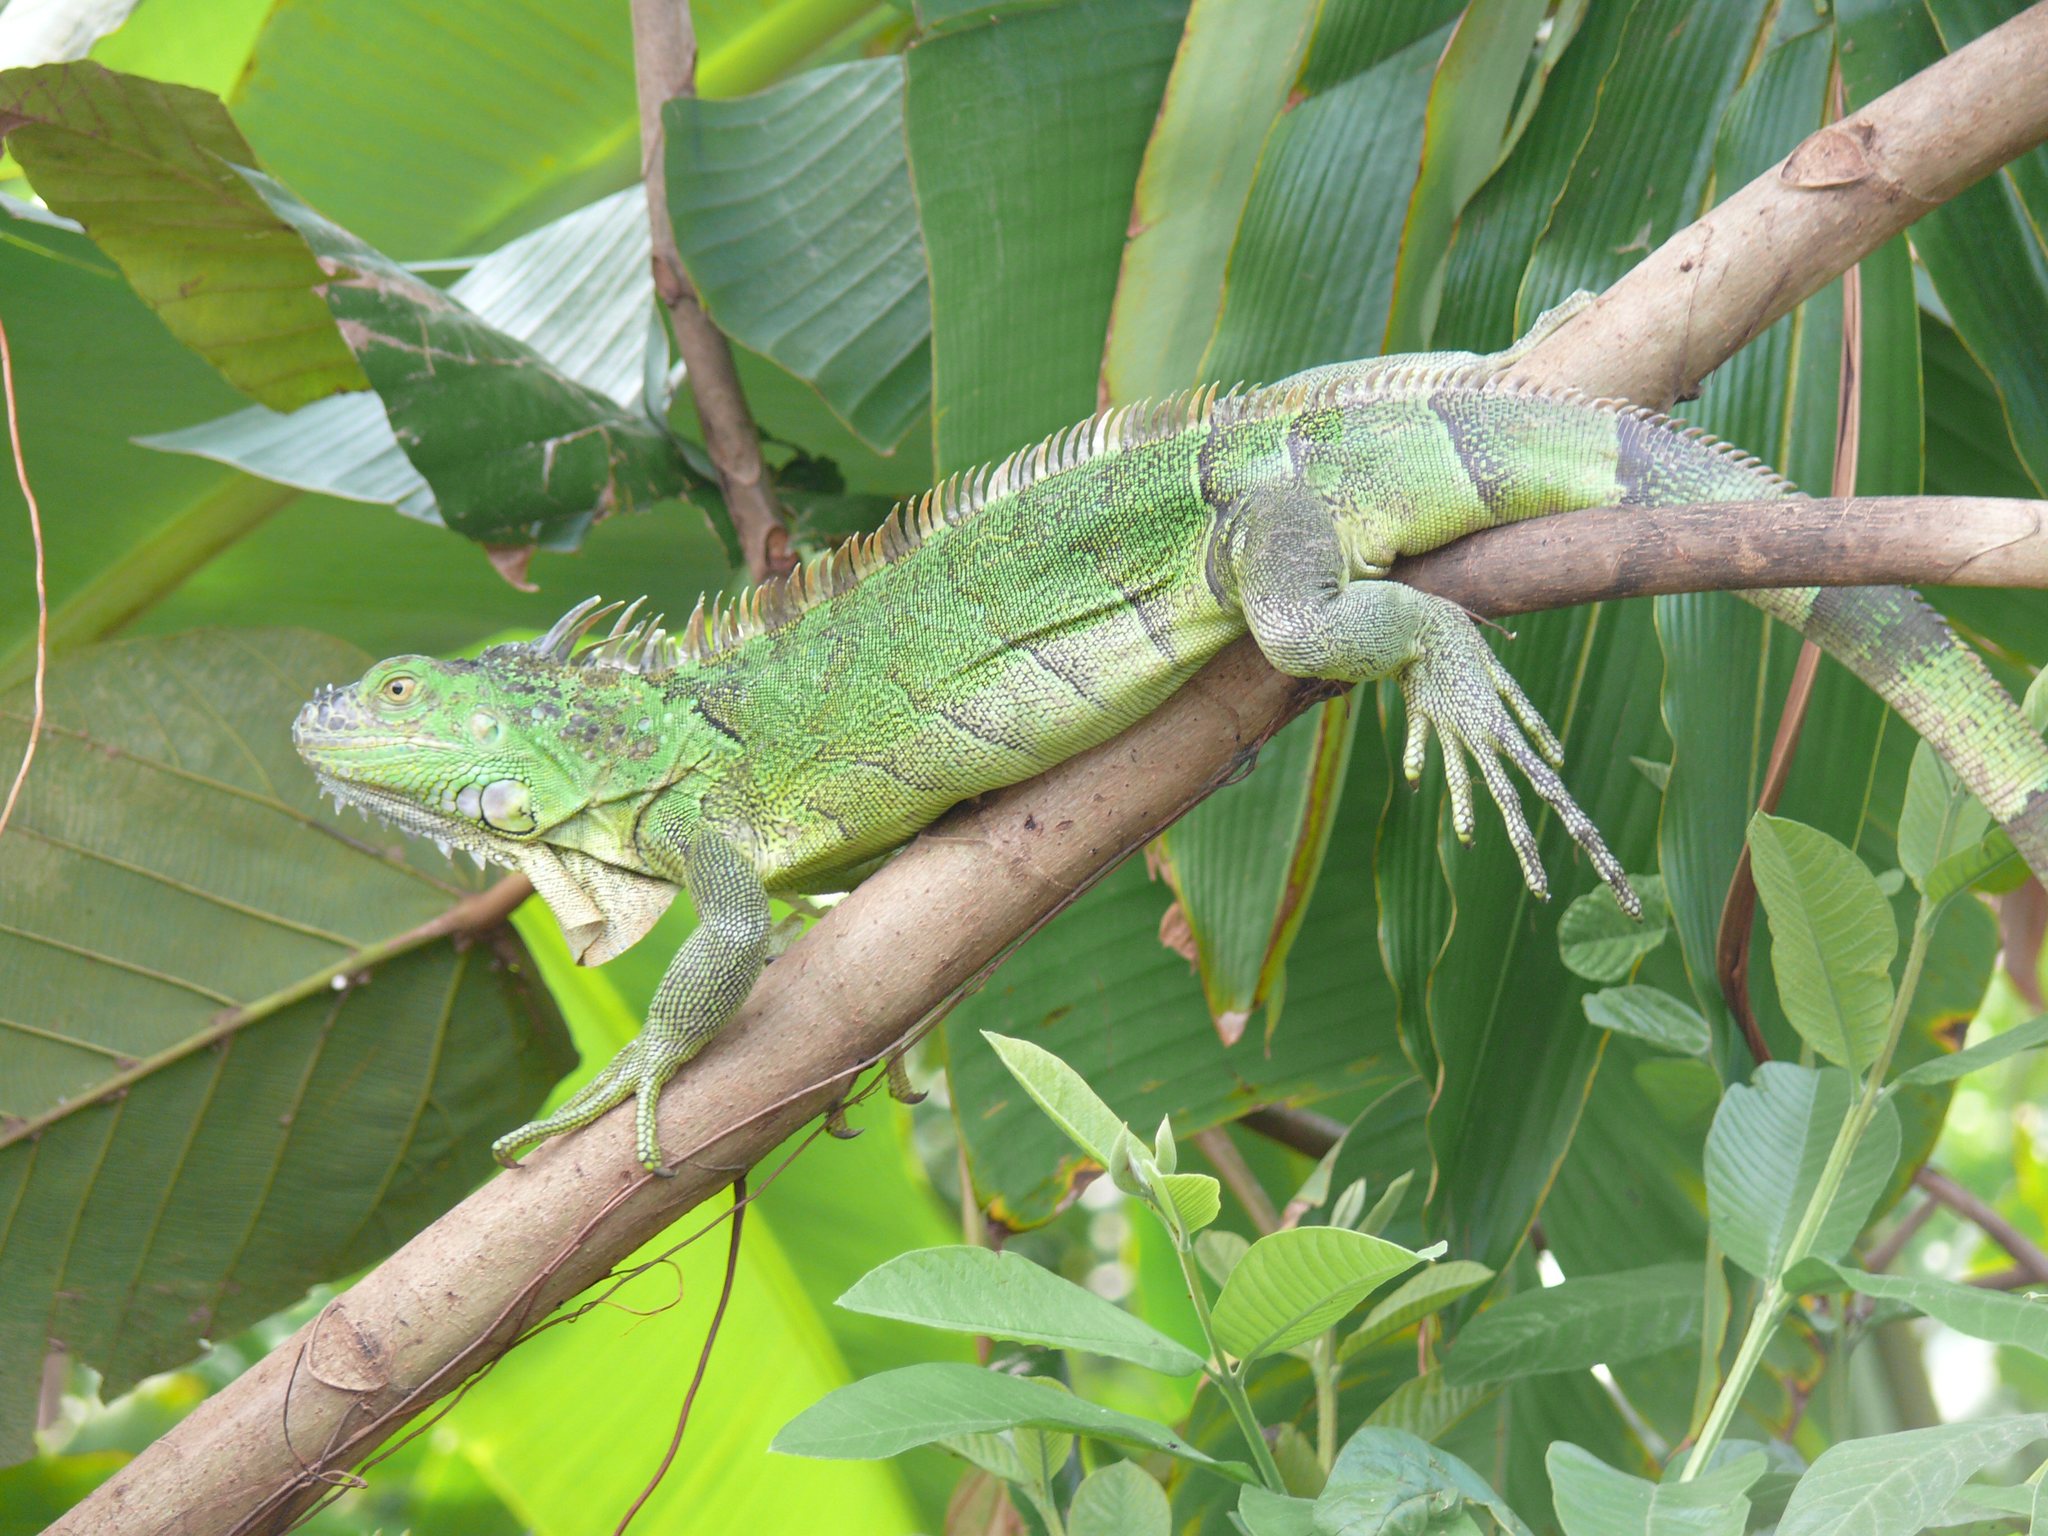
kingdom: Animalia
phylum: Chordata
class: Squamata
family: Iguanidae
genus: Iguana
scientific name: Iguana iguana
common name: Green iguana
